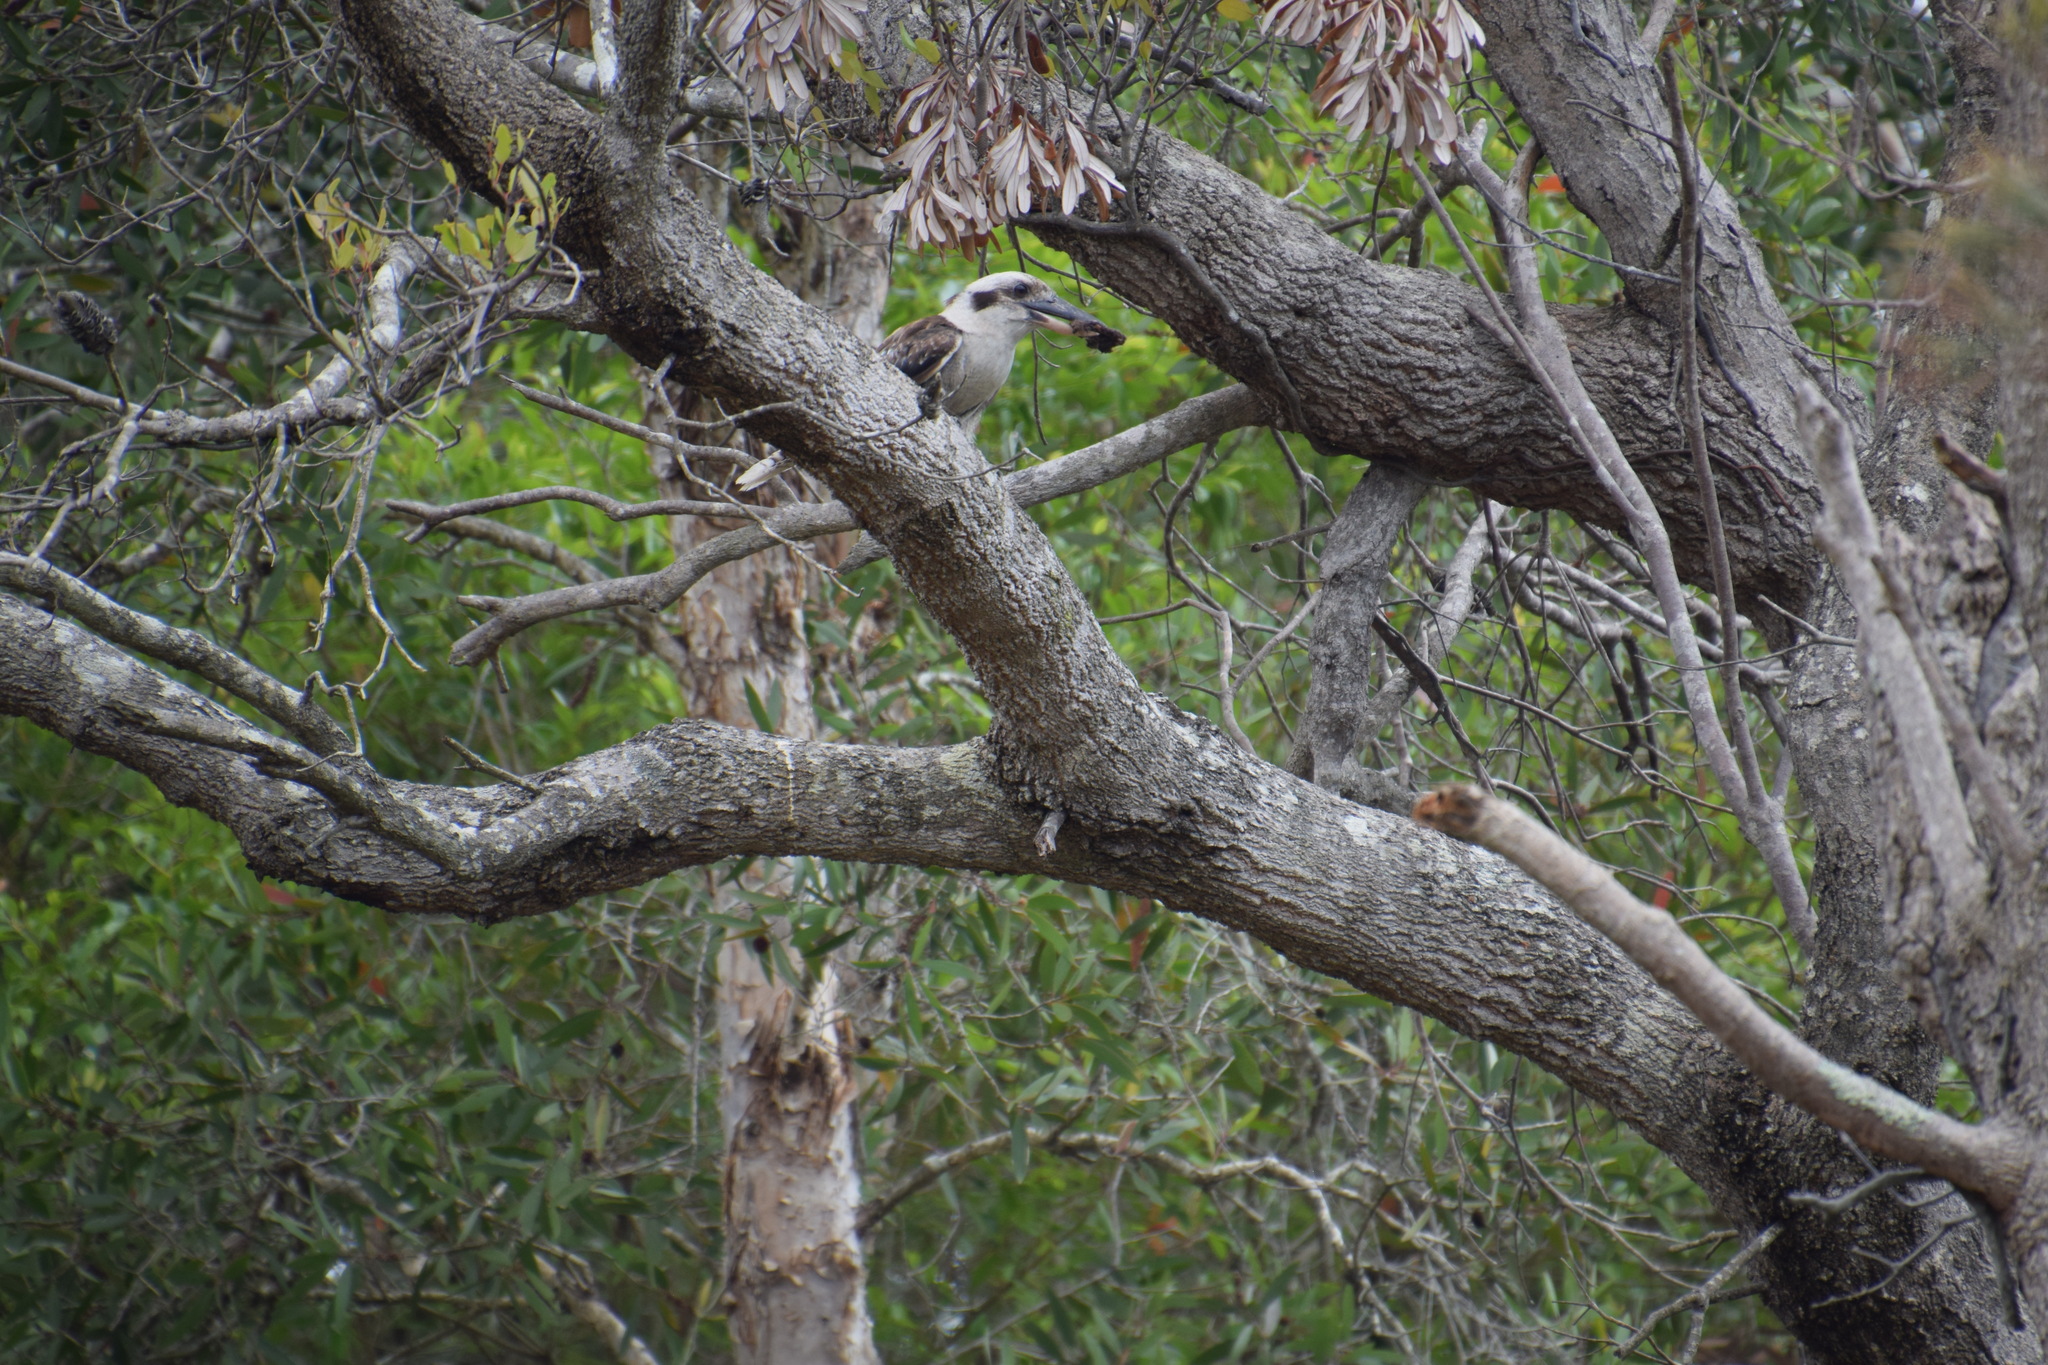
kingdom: Animalia
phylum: Chordata
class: Aves
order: Coraciiformes
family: Alcedinidae
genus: Dacelo
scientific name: Dacelo novaeguineae
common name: Laughing kookaburra
